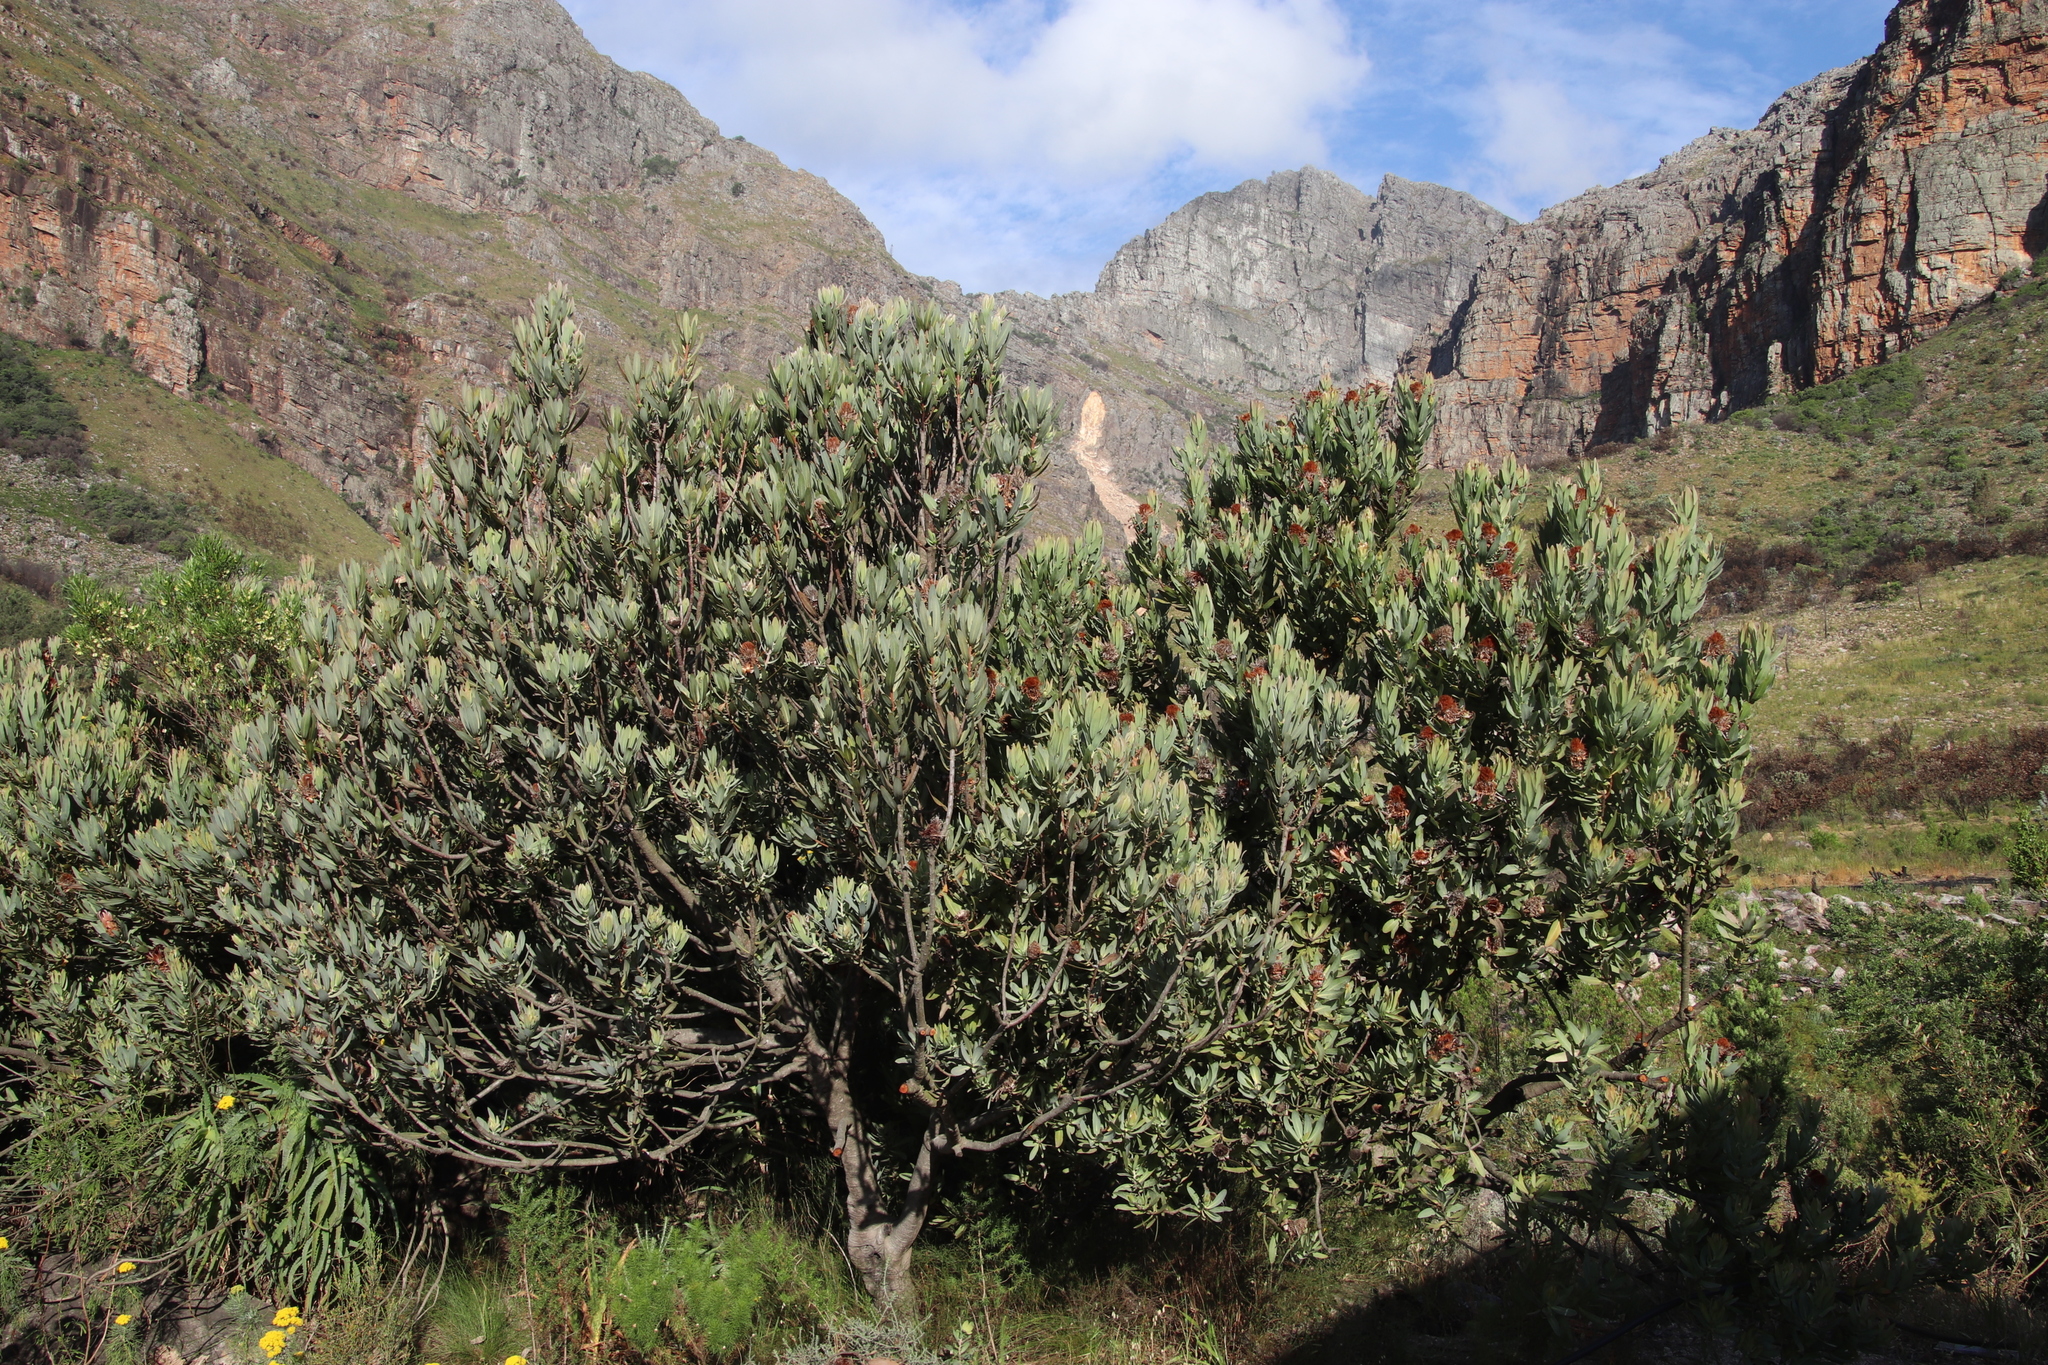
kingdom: Plantae
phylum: Tracheophyta
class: Magnoliopsida
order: Proteales
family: Proteaceae
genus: Protea
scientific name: Protea laurifolia
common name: Grey-leaf sugarbsh
